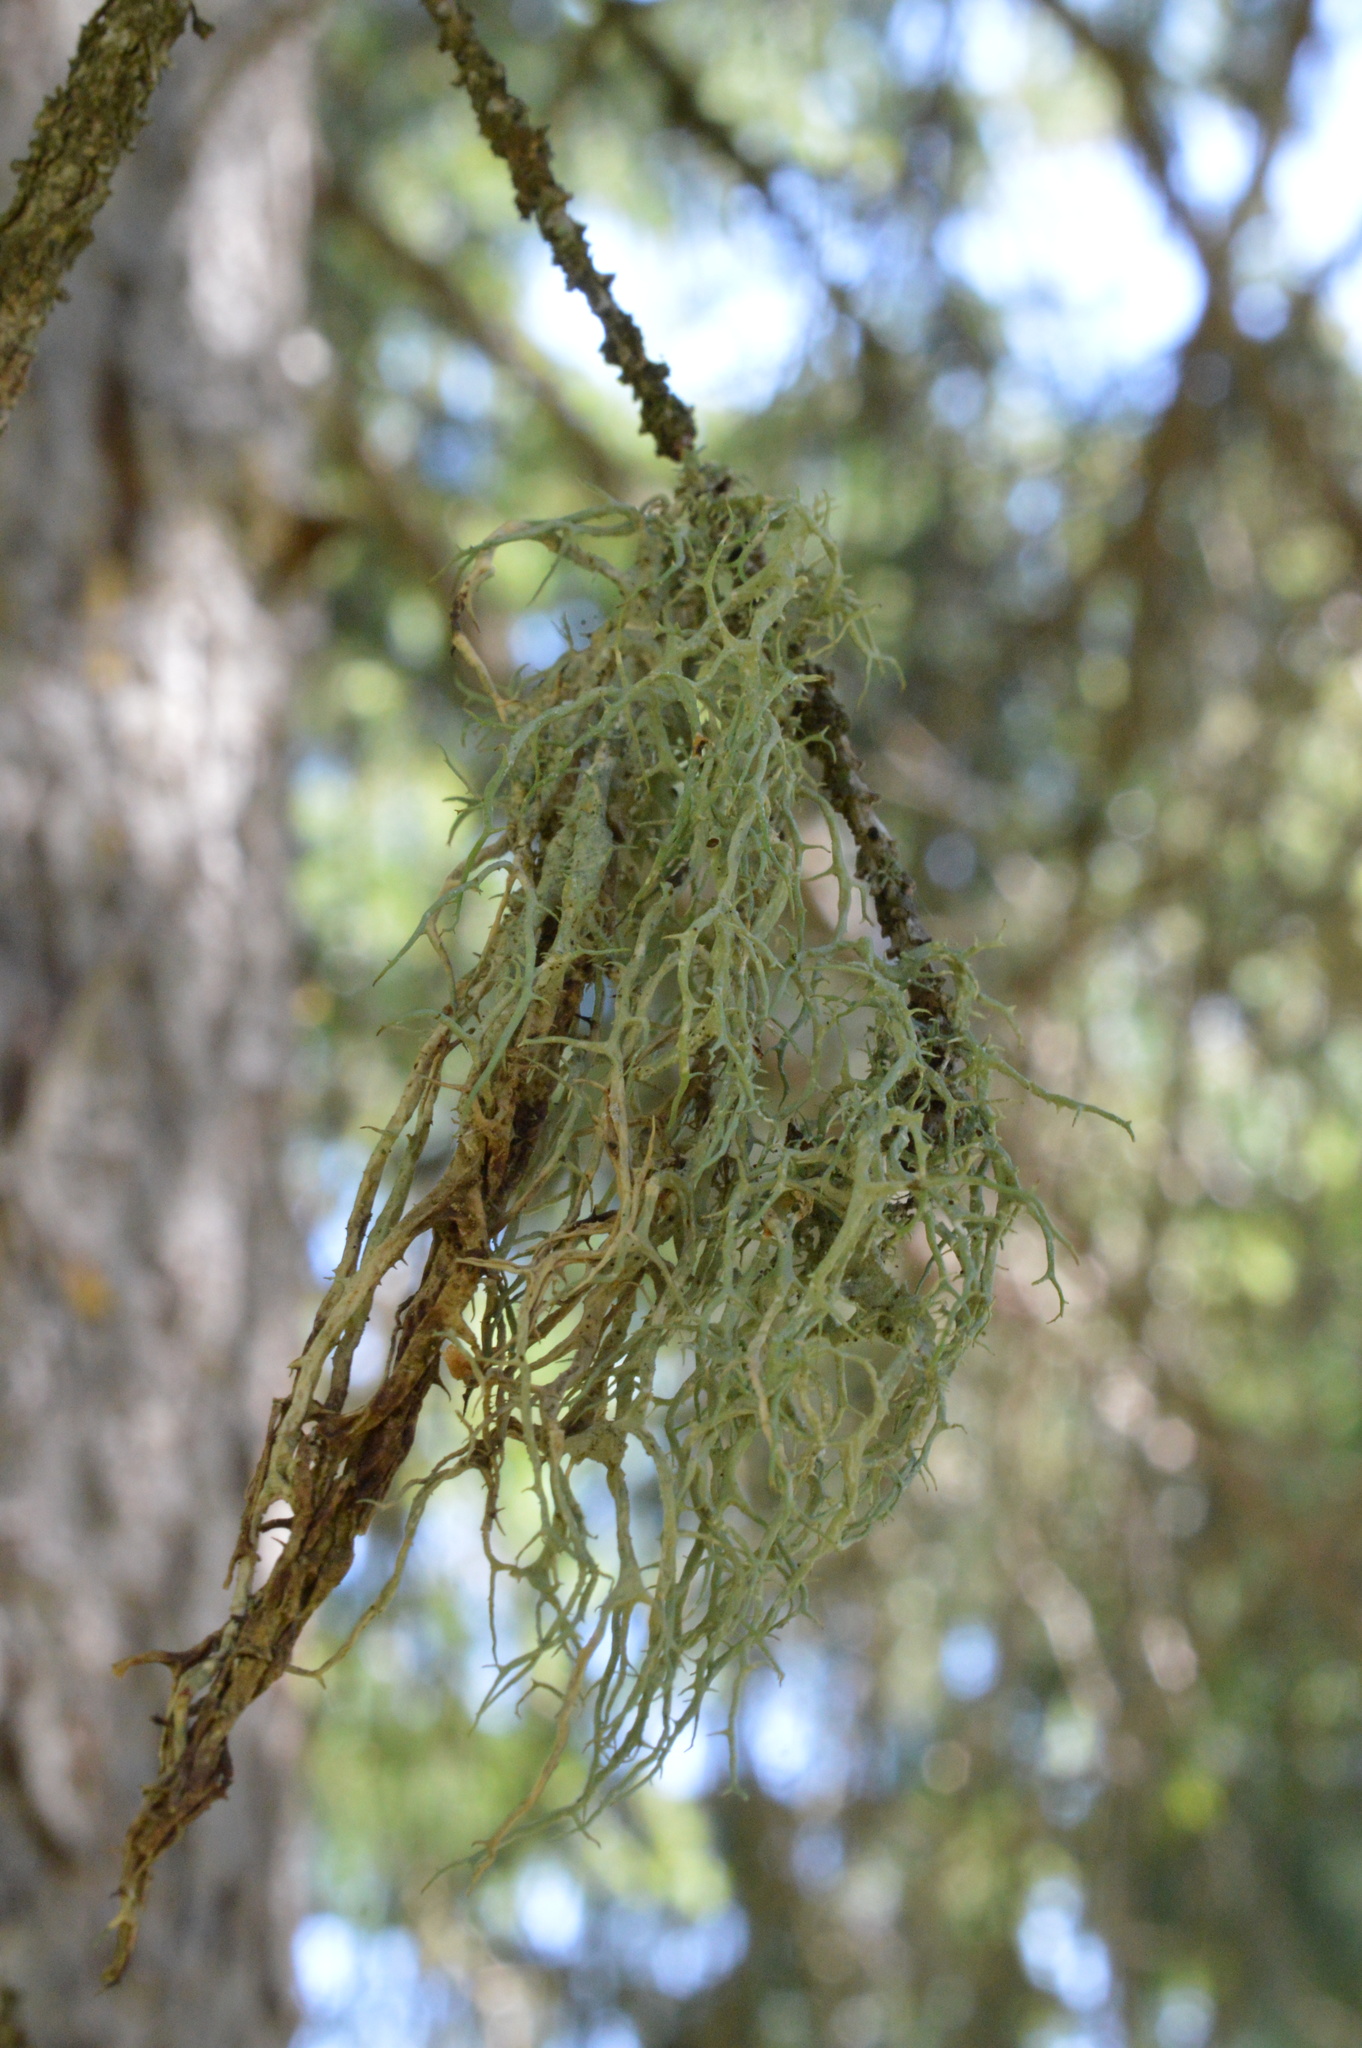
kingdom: Fungi
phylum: Ascomycota
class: Lecanoromycetes
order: Lecanorales
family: Parmeliaceae
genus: Evernia
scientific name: Evernia divaricata
